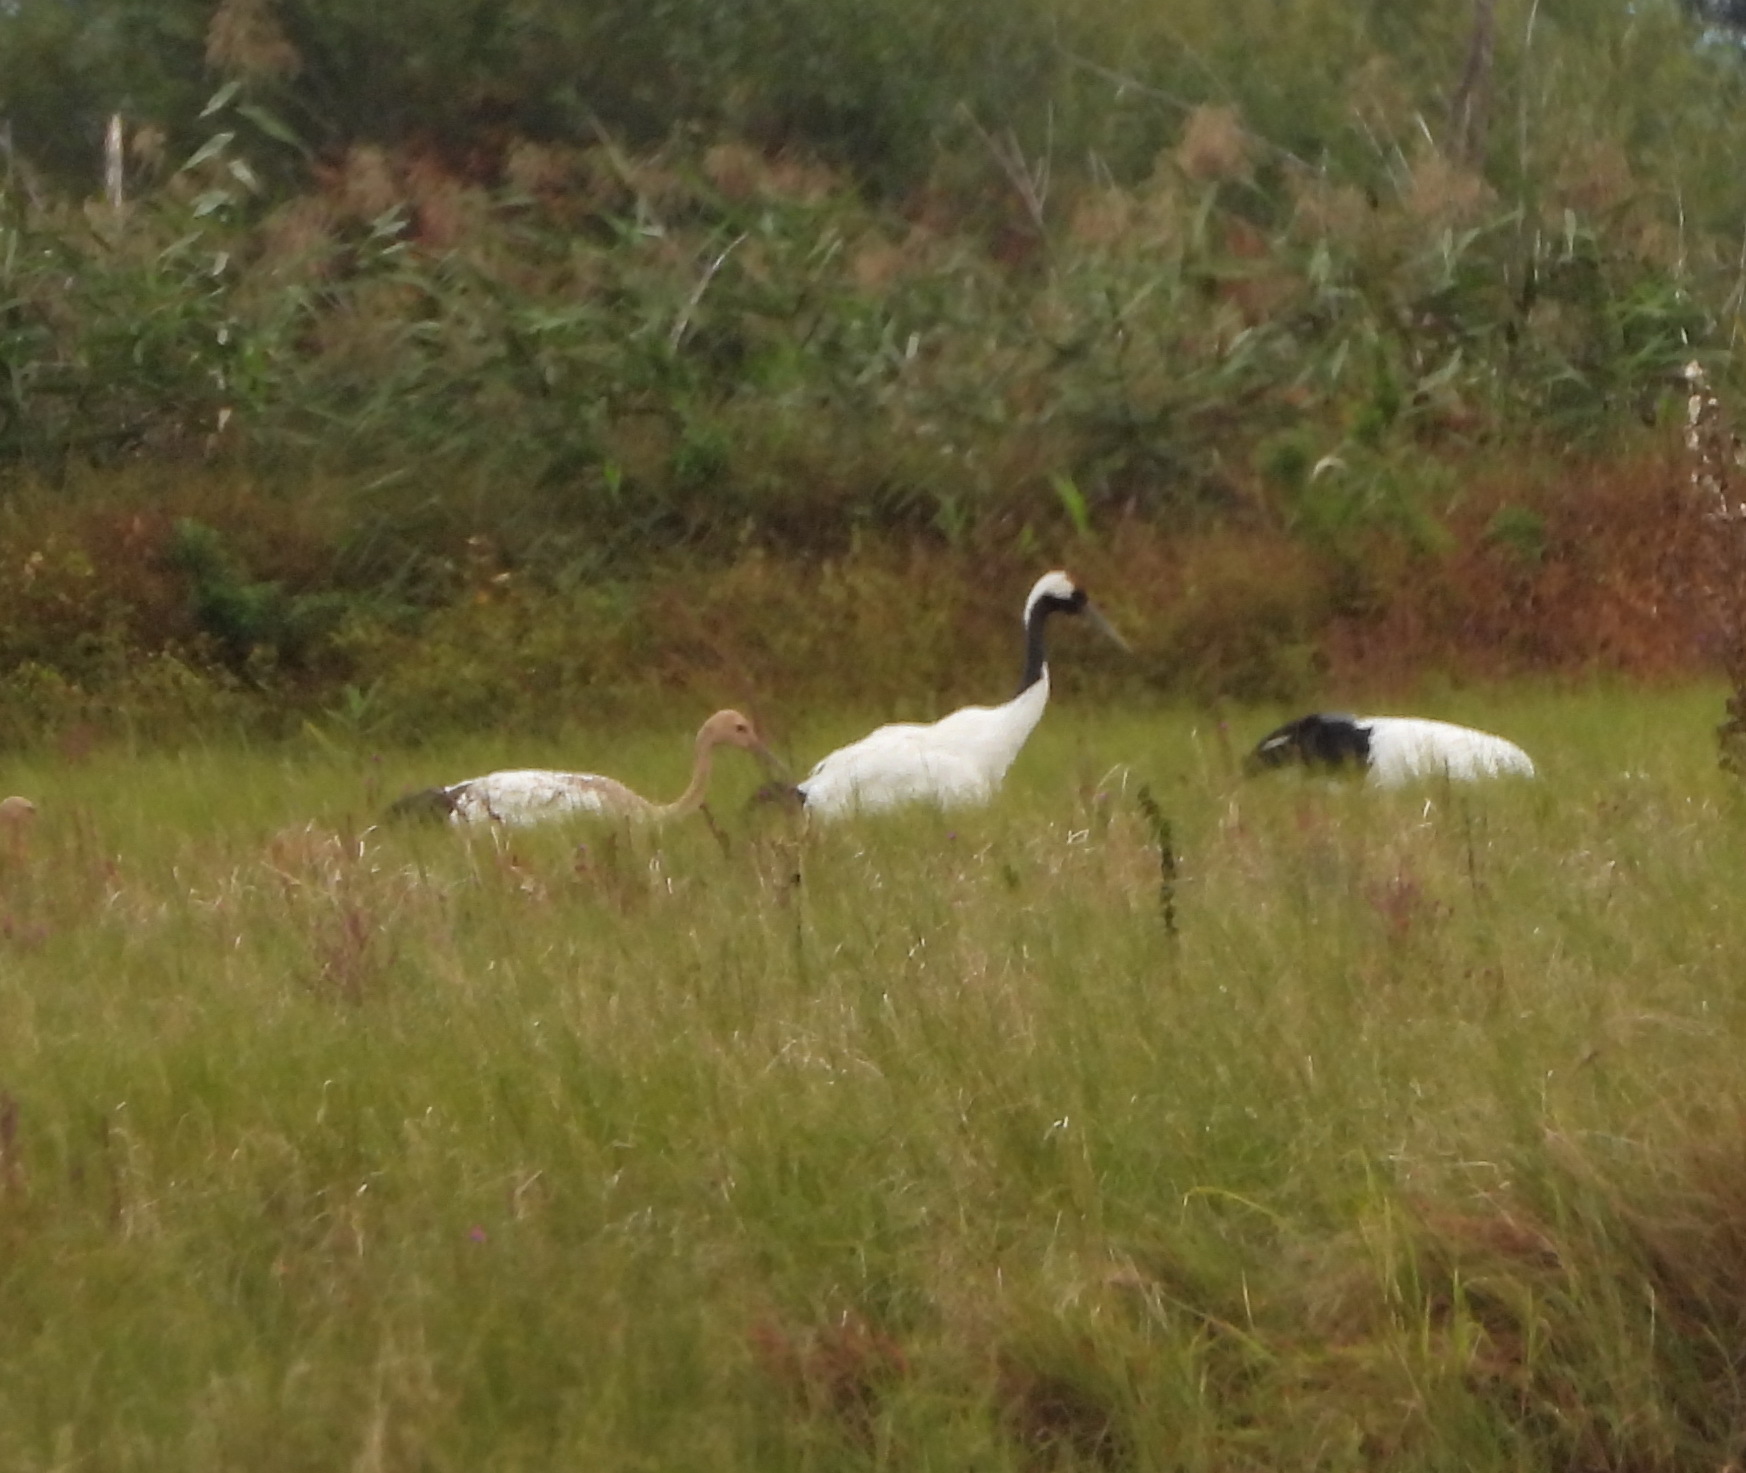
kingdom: Animalia
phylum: Chordata
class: Aves
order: Gruiformes
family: Gruidae
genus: Grus
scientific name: Grus japonensis
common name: Red-crowned crane
